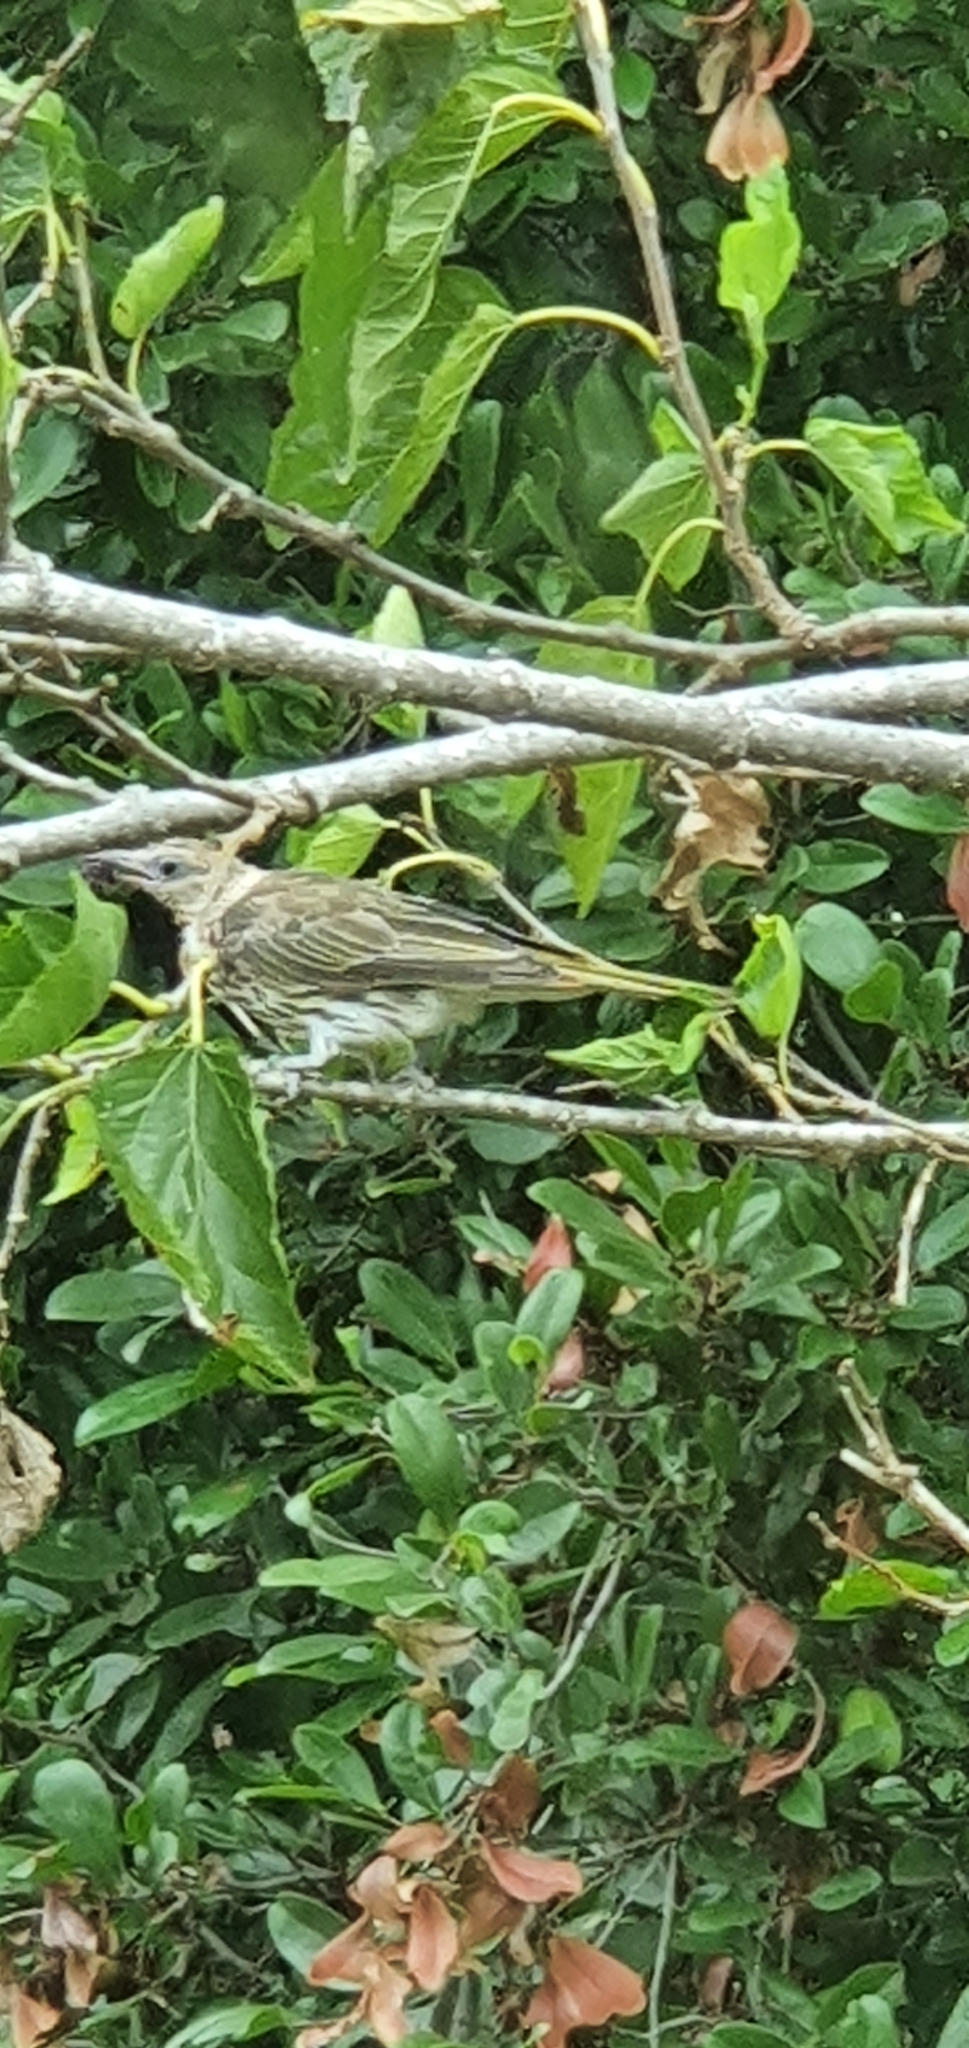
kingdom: Animalia
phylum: Chordata
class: Aves
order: Passeriformes
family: Oriolidae
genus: Sphecotheres
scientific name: Sphecotheres vieilloti
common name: Australasian figbird
